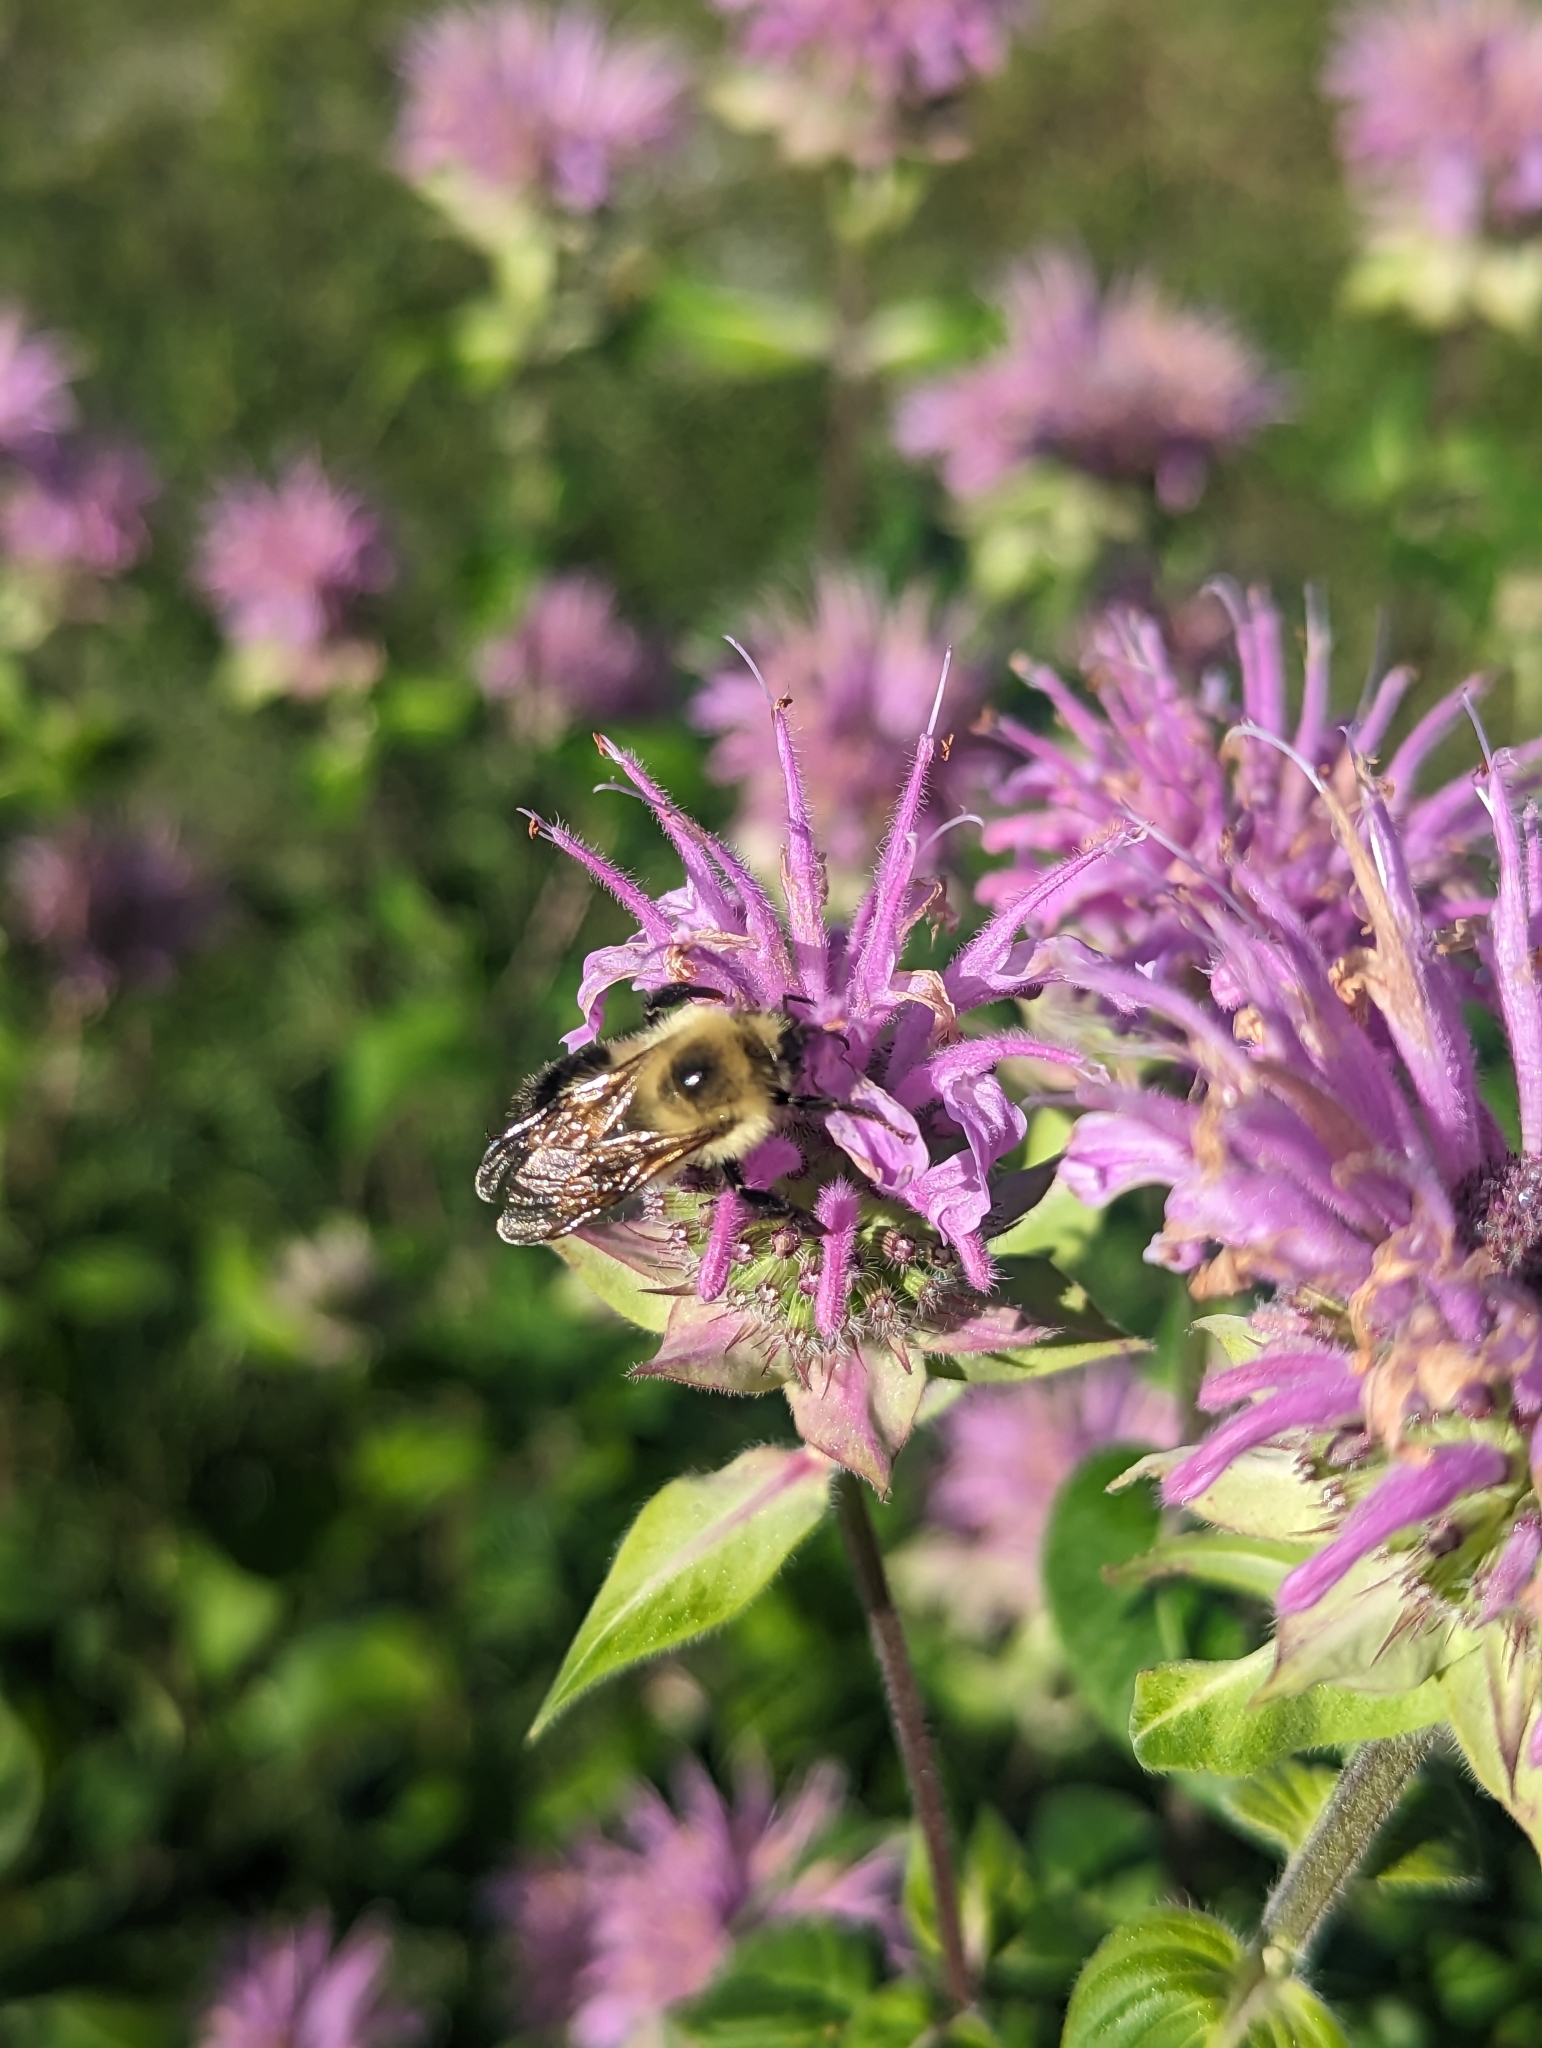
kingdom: Animalia
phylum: Arthropoda
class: Insecta
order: Hymenoptera
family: Apidae
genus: Bombus
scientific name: Bombus bimaculatus
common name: Two-spotted bumble bee
